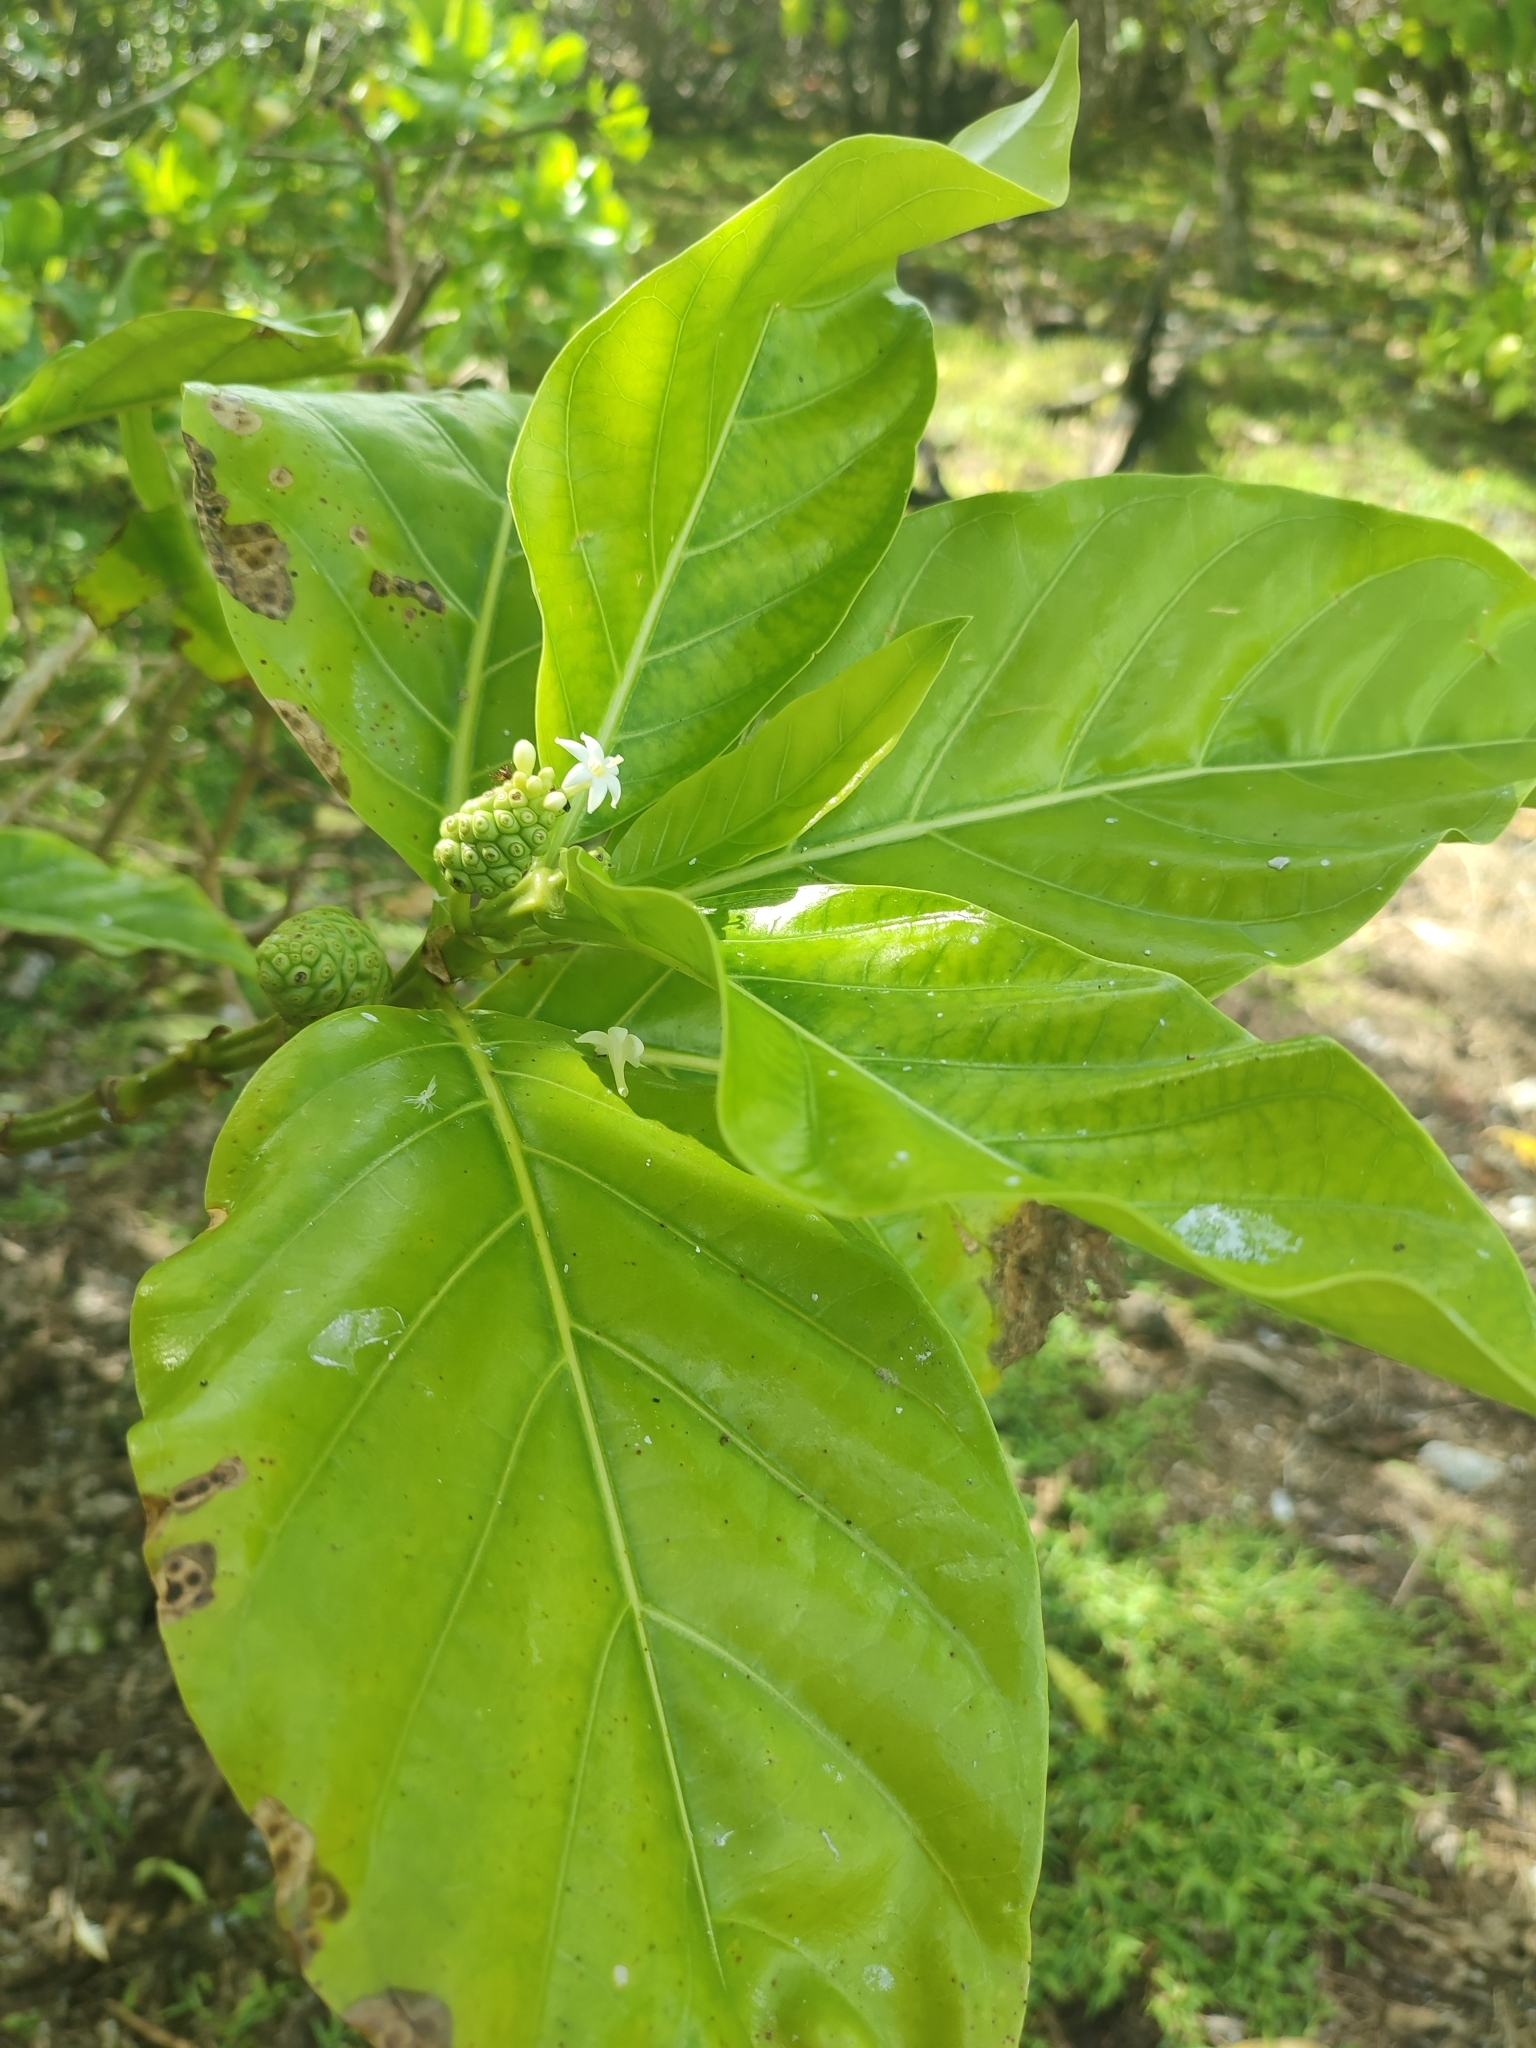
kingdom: Plantae
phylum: Tracheophyta
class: Magnoliopsida
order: Gentianales
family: Rubiaceae
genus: Morinda
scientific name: Morinda citrifolia
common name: Indian-mulberry
